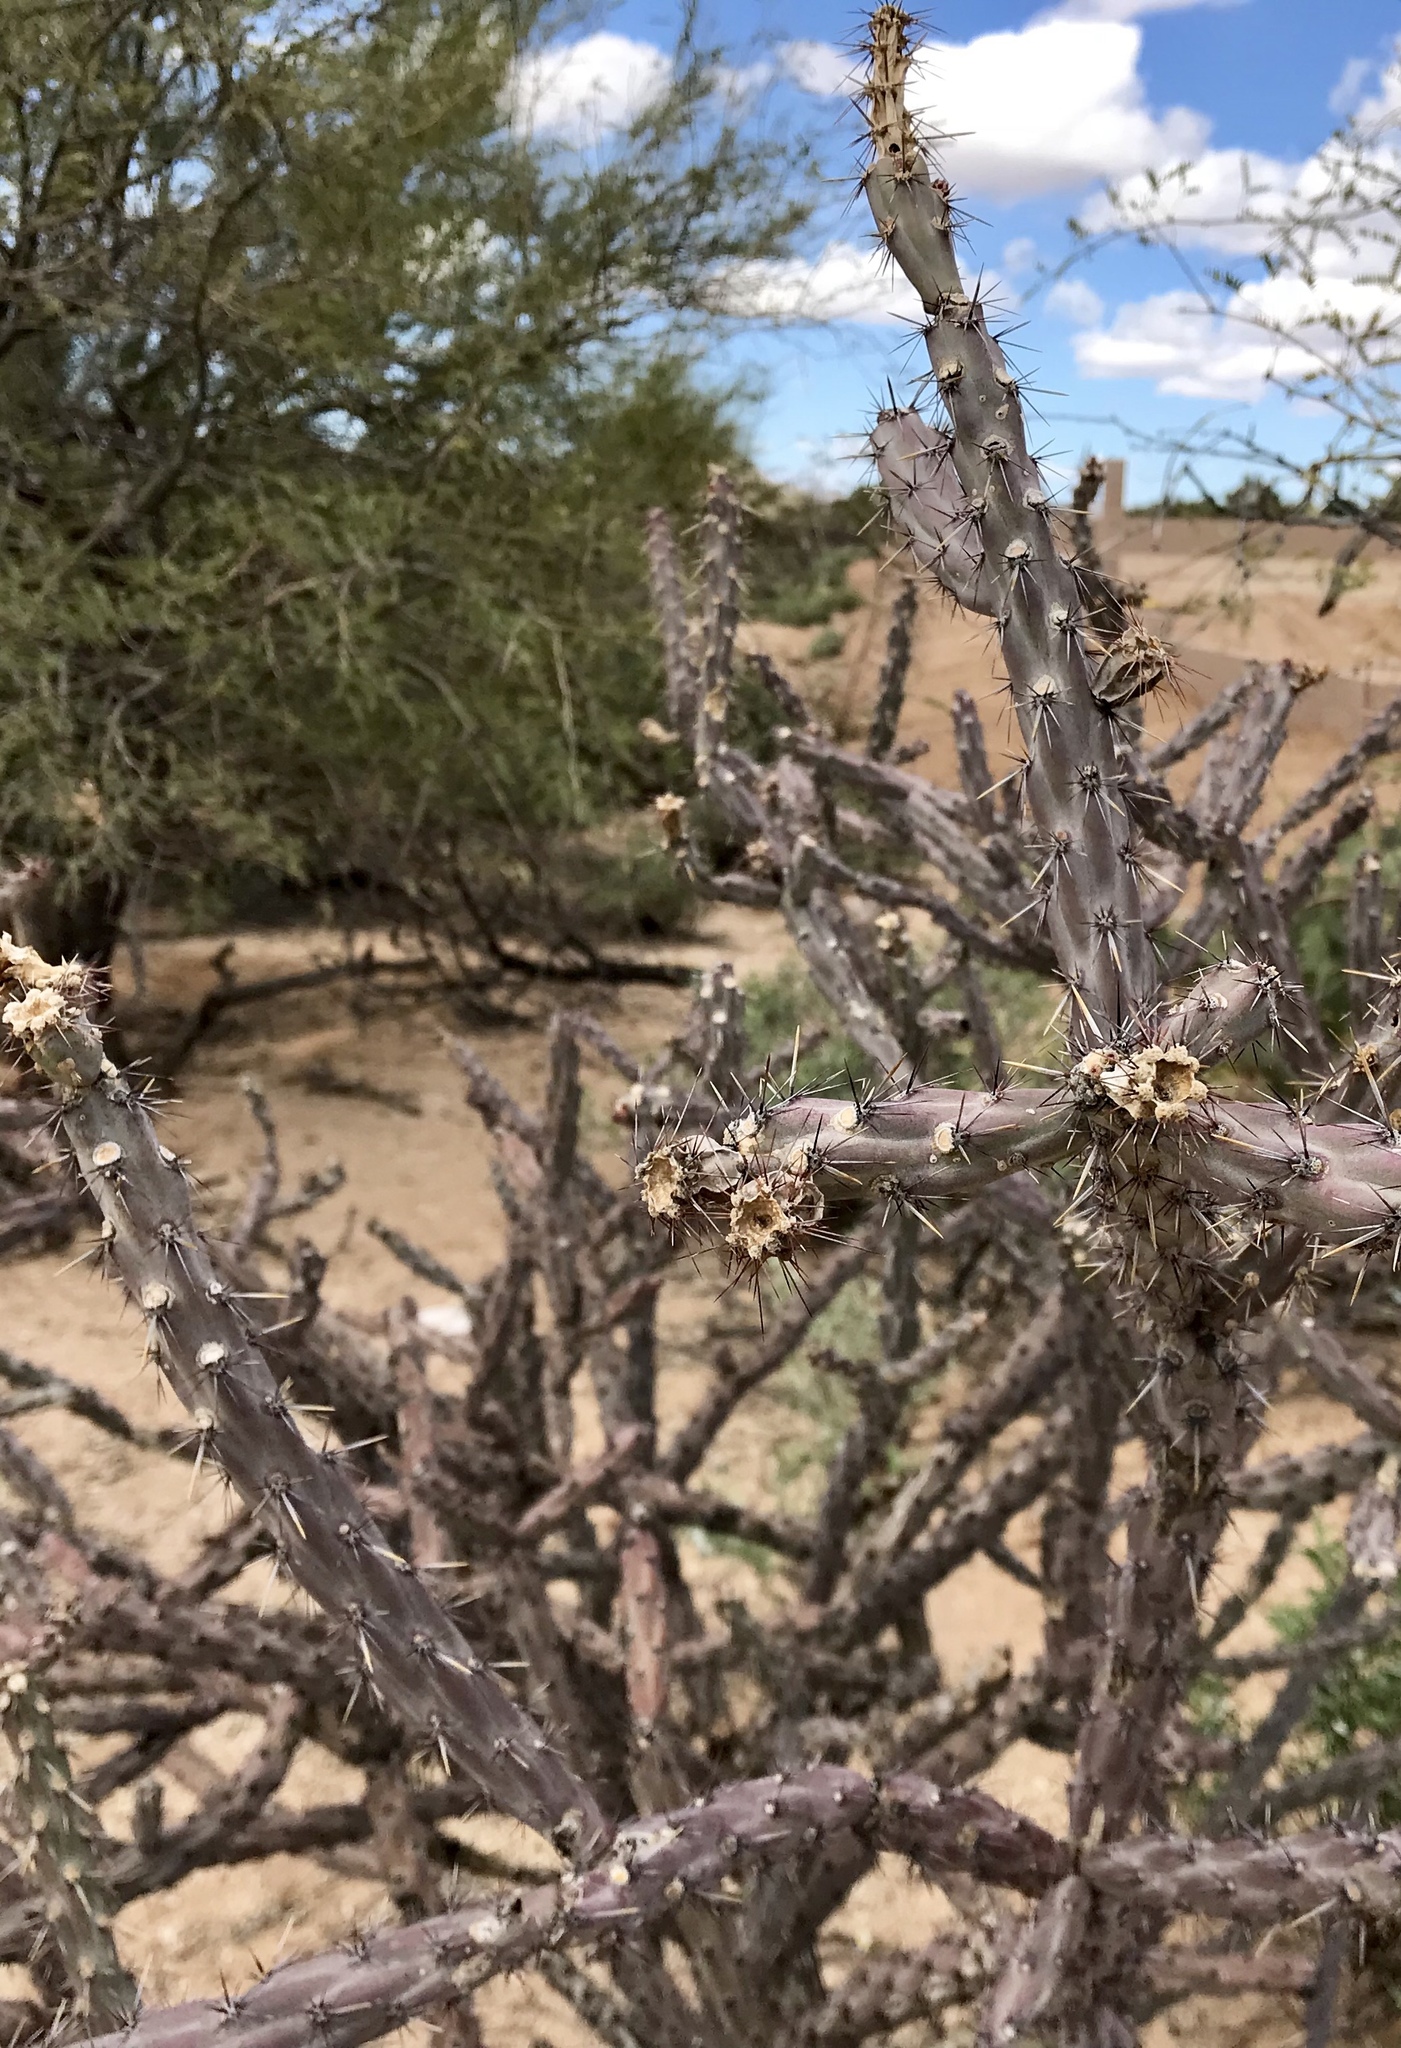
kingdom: Plantae
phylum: Tracheophyta
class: Magnoliopsida
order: Caryophyllales
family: Cactaceae
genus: Cylindropuntia
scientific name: Cylindropuntia acanthocarpa
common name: Buckhorn cholla
